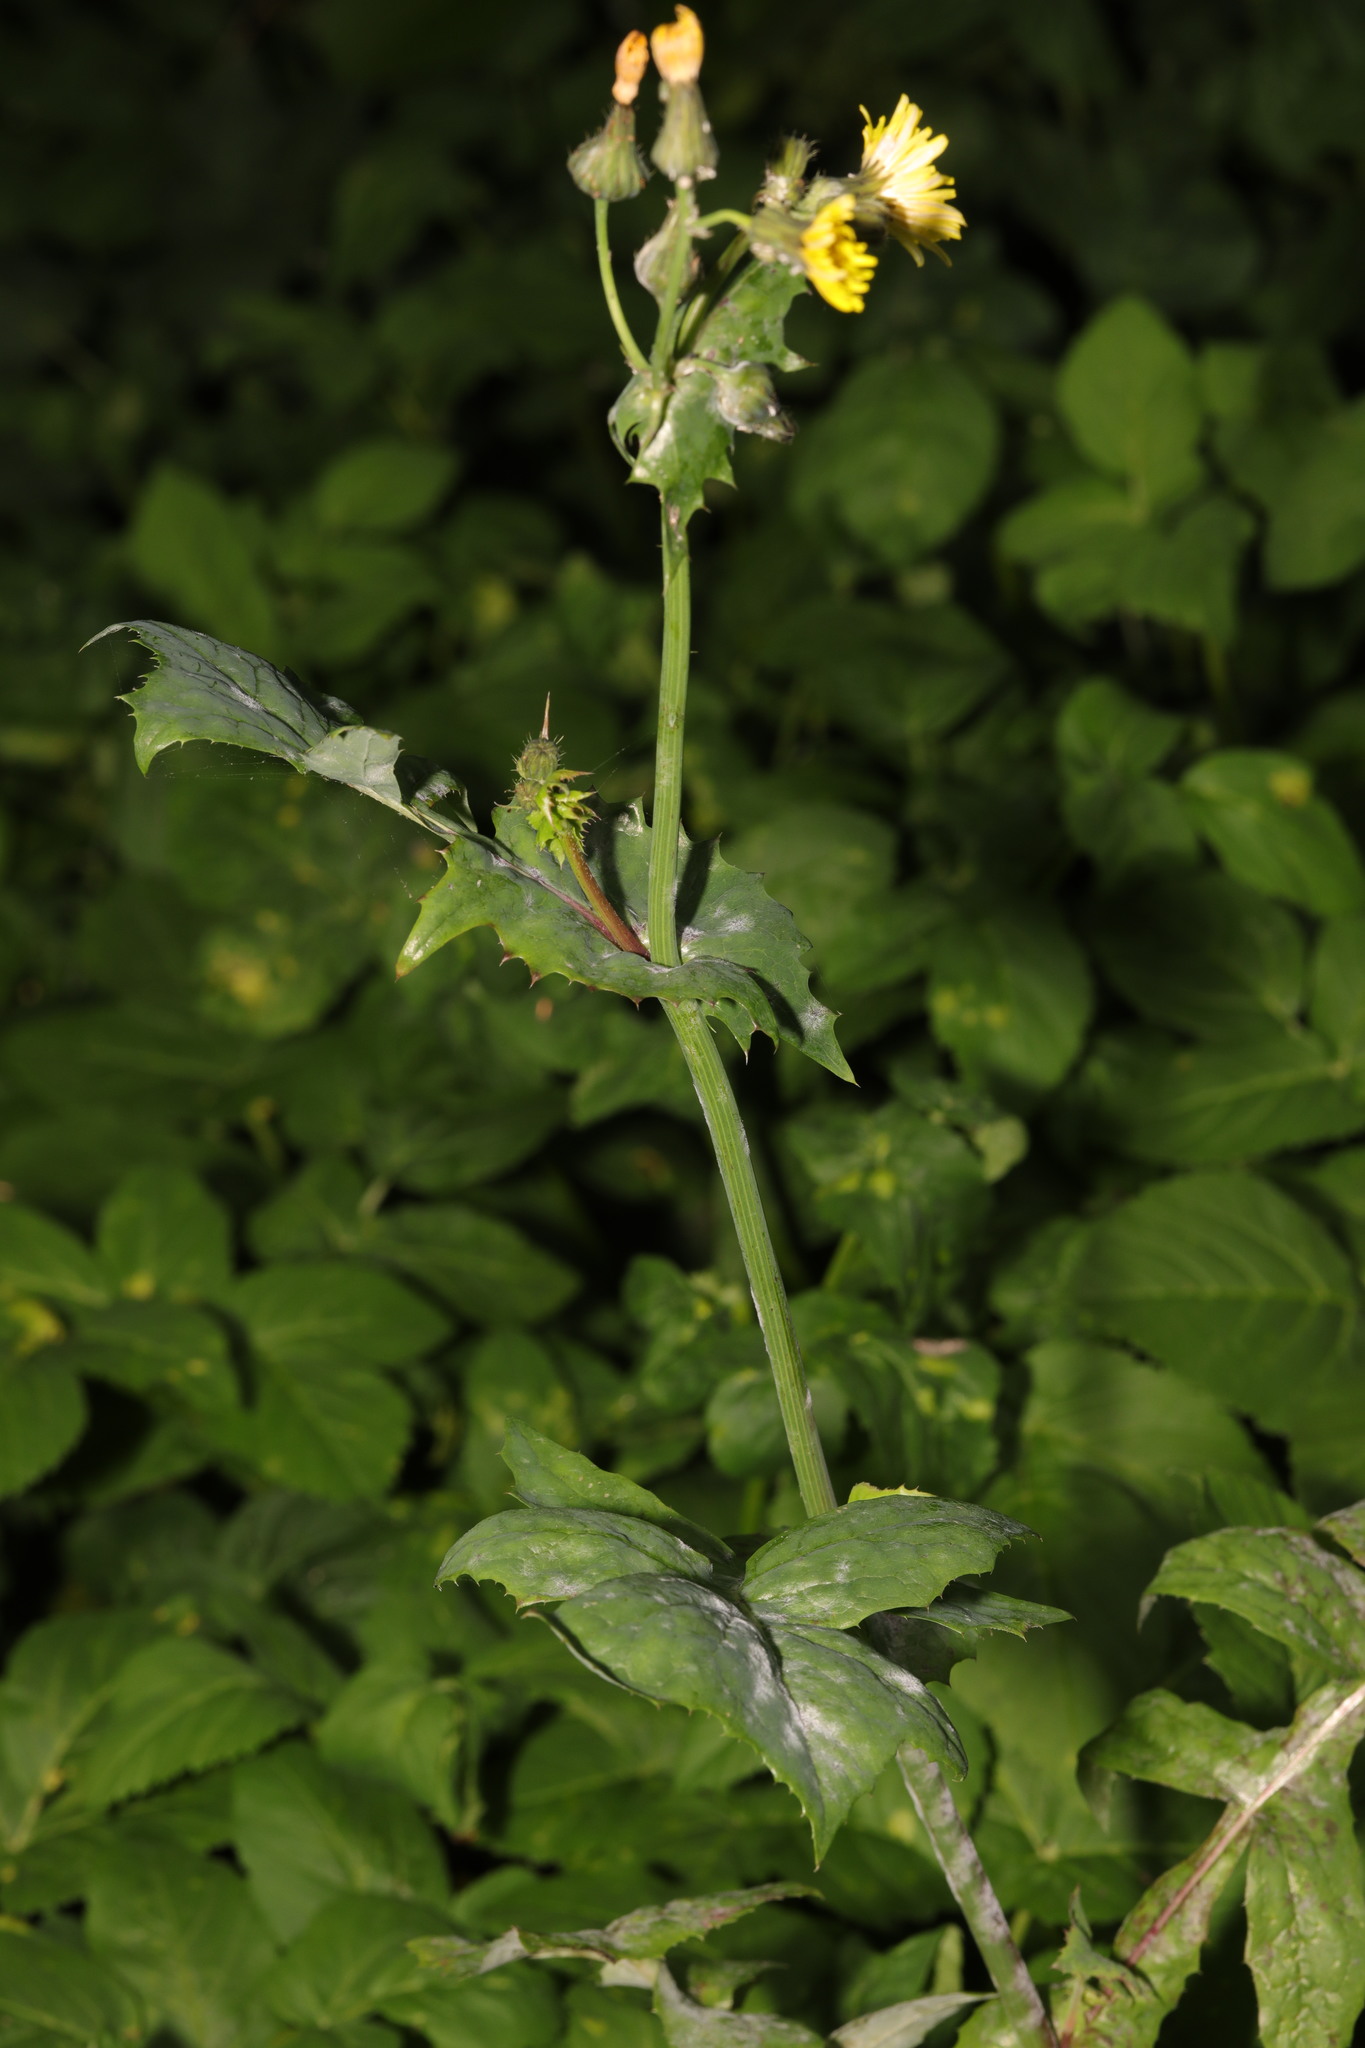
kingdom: Plantae
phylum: Tracheophyta
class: Magnoliopsida
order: Asterales
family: Asteraceae
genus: Sonchus
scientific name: Sonchus oleraceus
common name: Common sowthistle
